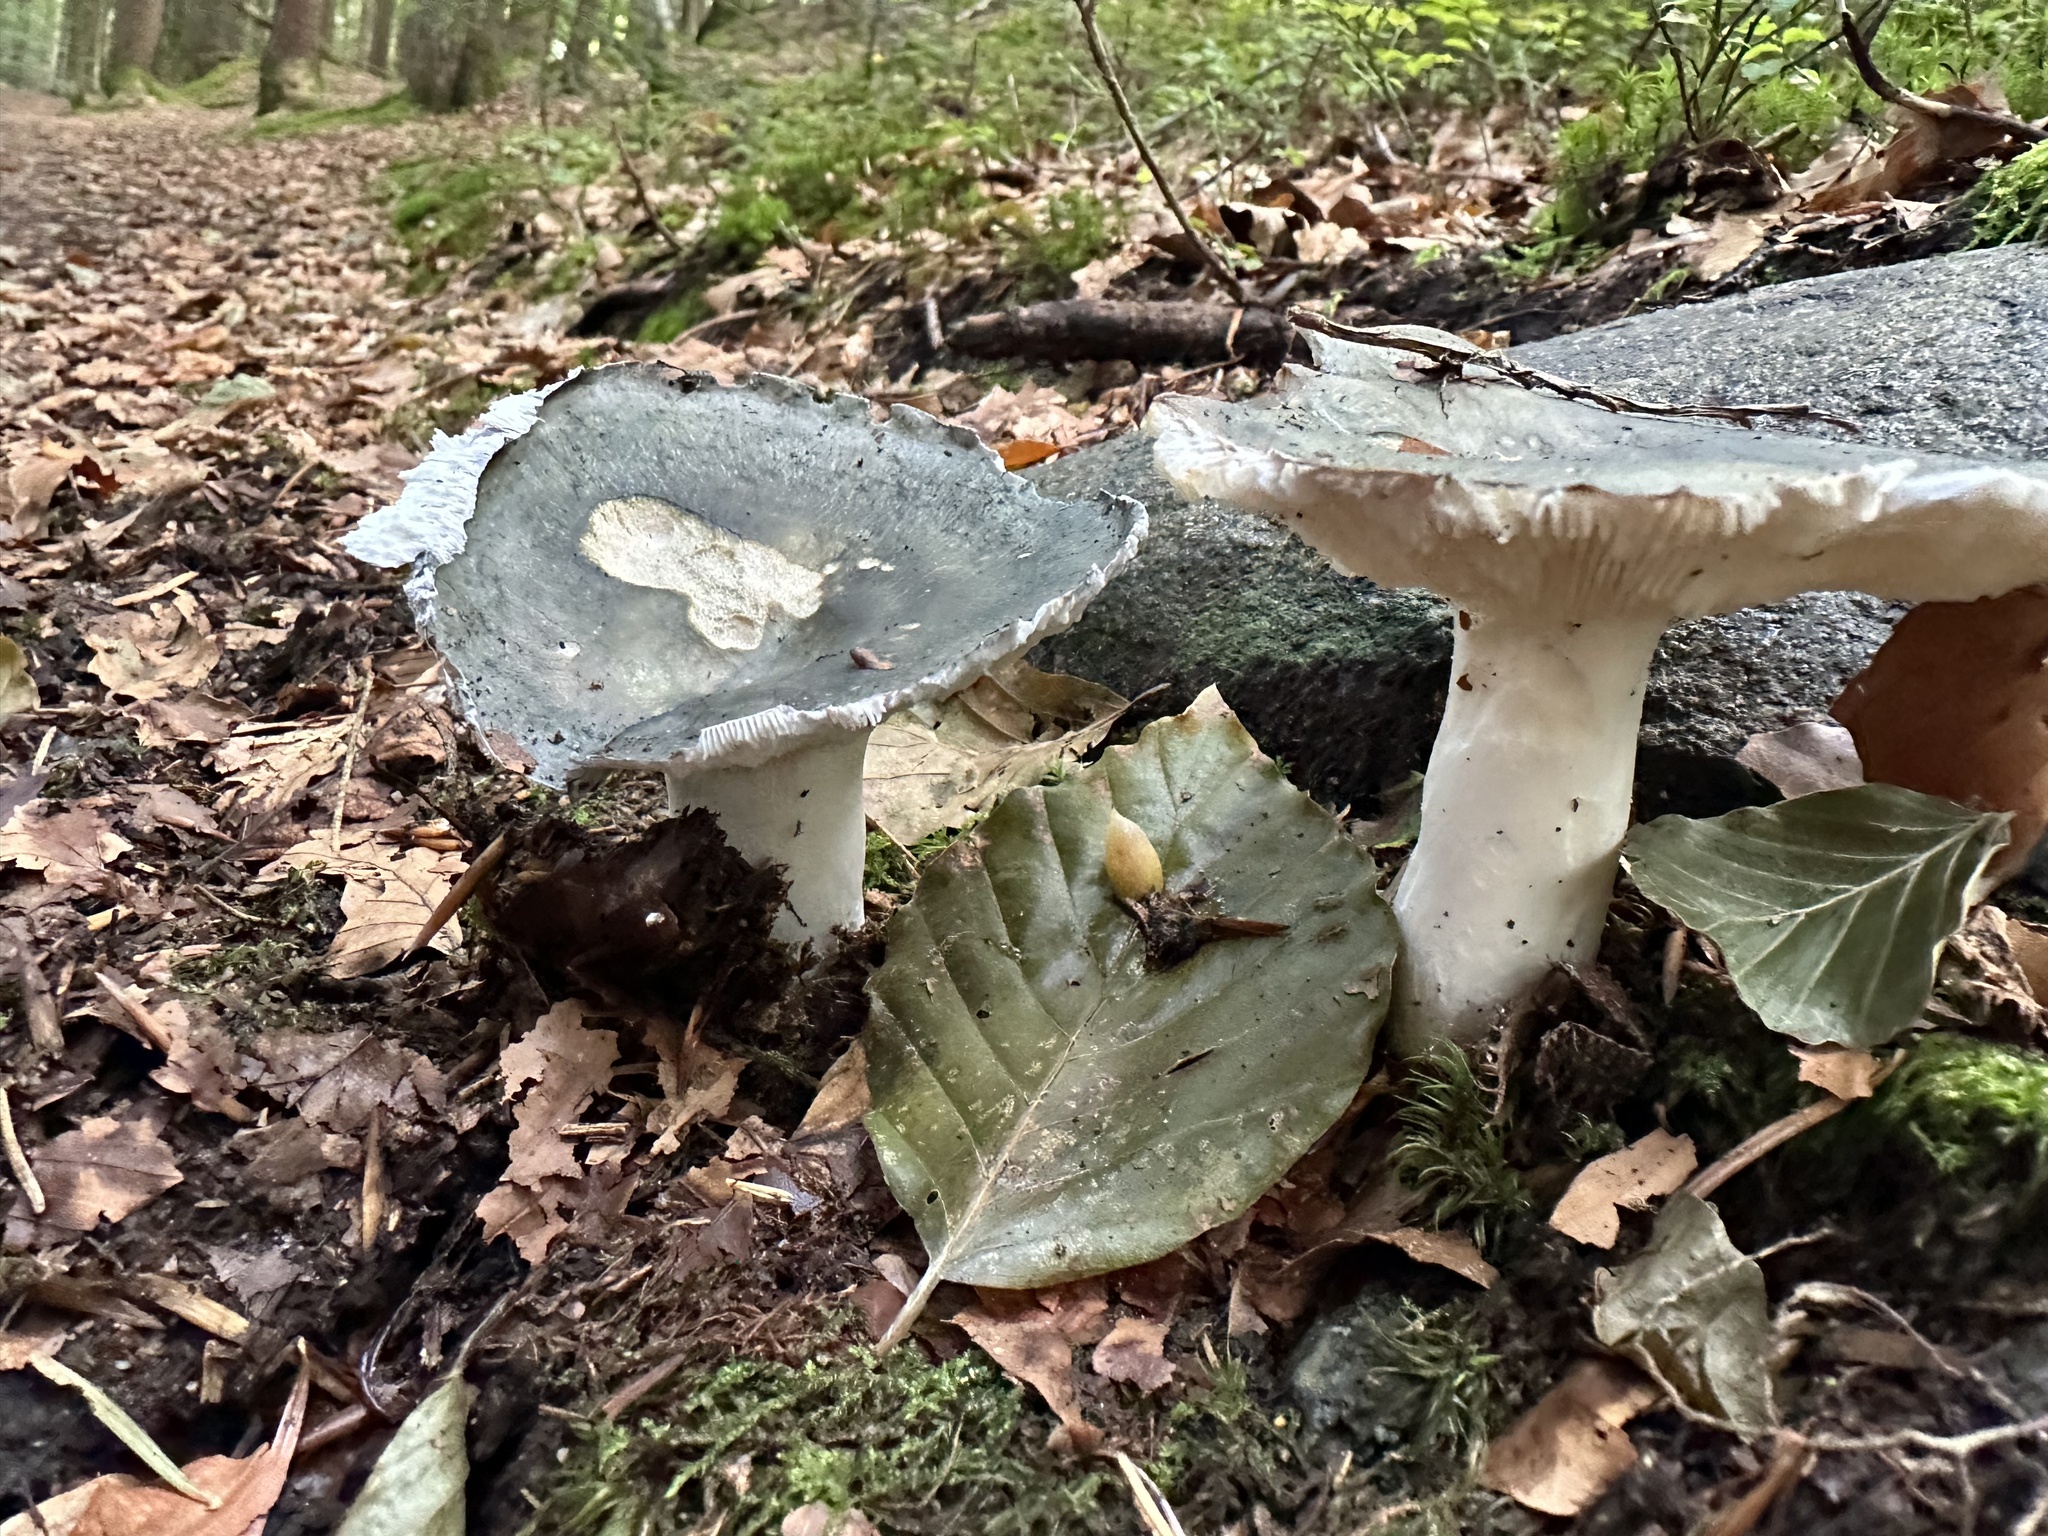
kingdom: Fungi
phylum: Basidiomycota
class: Agaricomycetes
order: Russulales
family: Russulaceae
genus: Russula
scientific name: Russula cyanoxantha
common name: Charcoal burner
